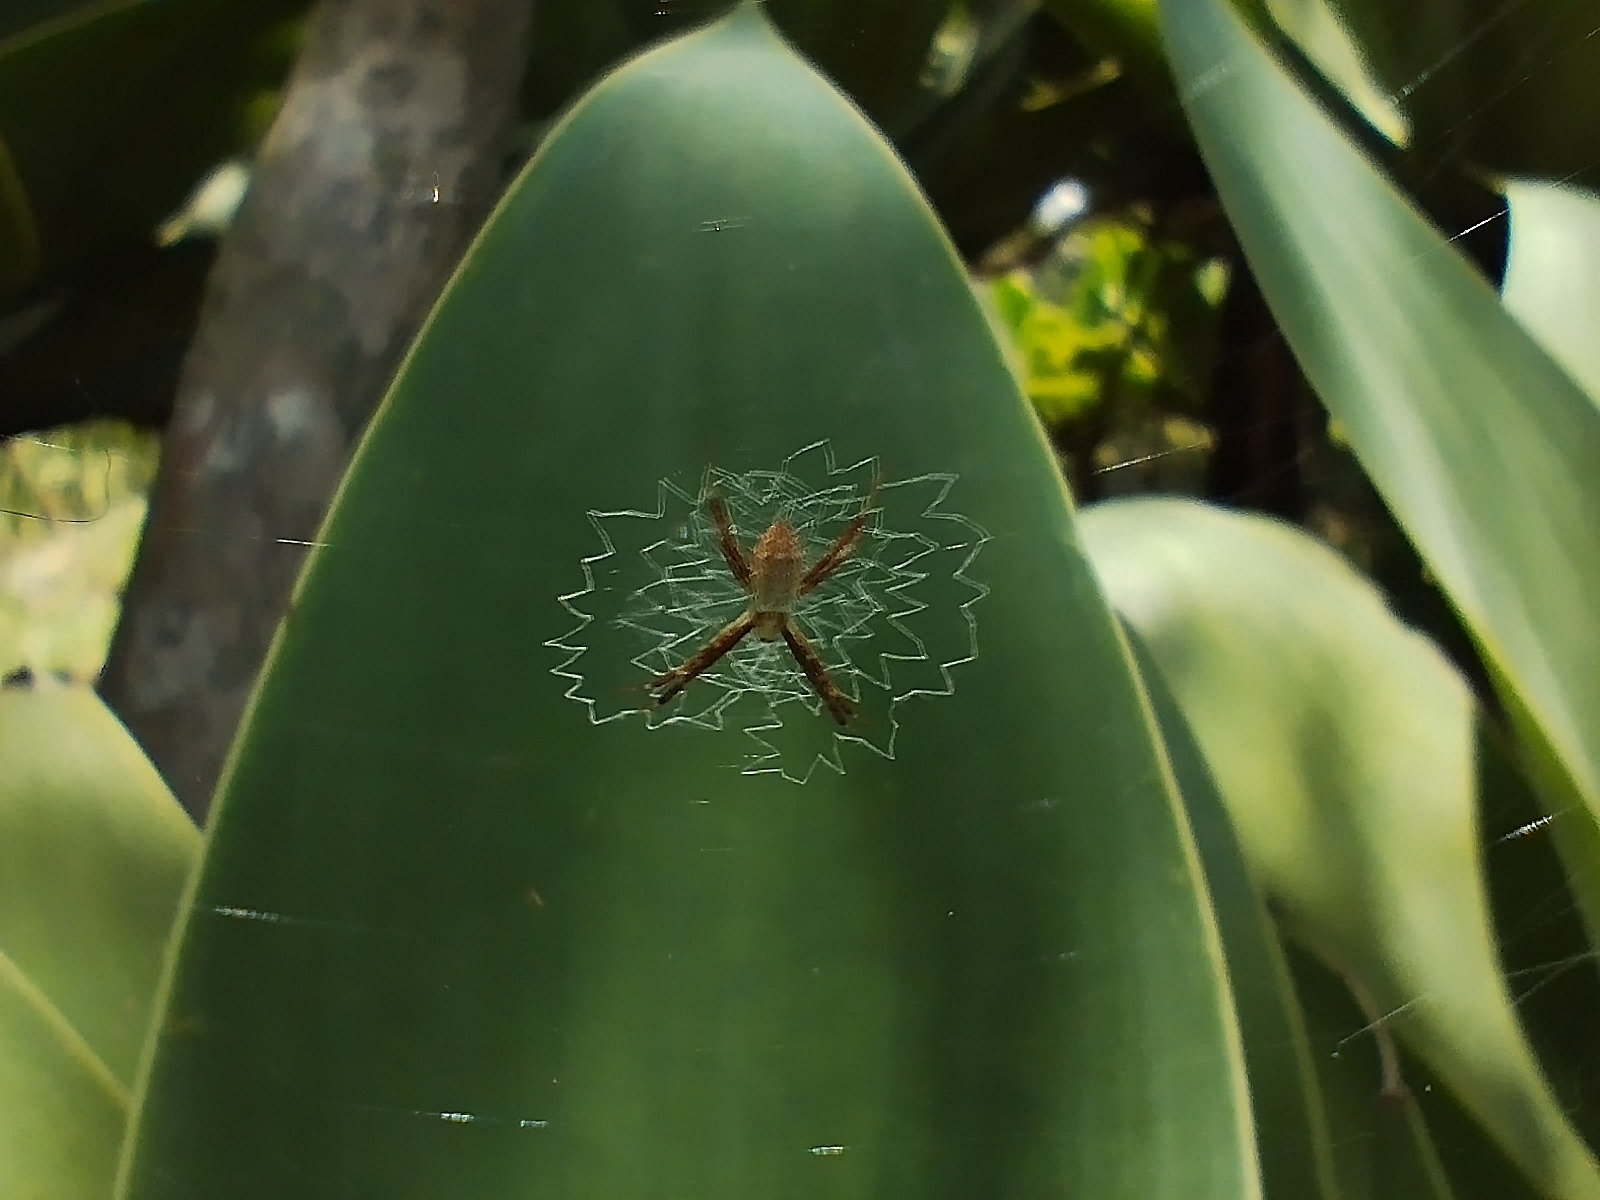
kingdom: Animalia
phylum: Arthropoda
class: Arachnida
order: Araneae
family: Araneidae
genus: Argiope
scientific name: Argiope argentata
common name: Orb weavers
